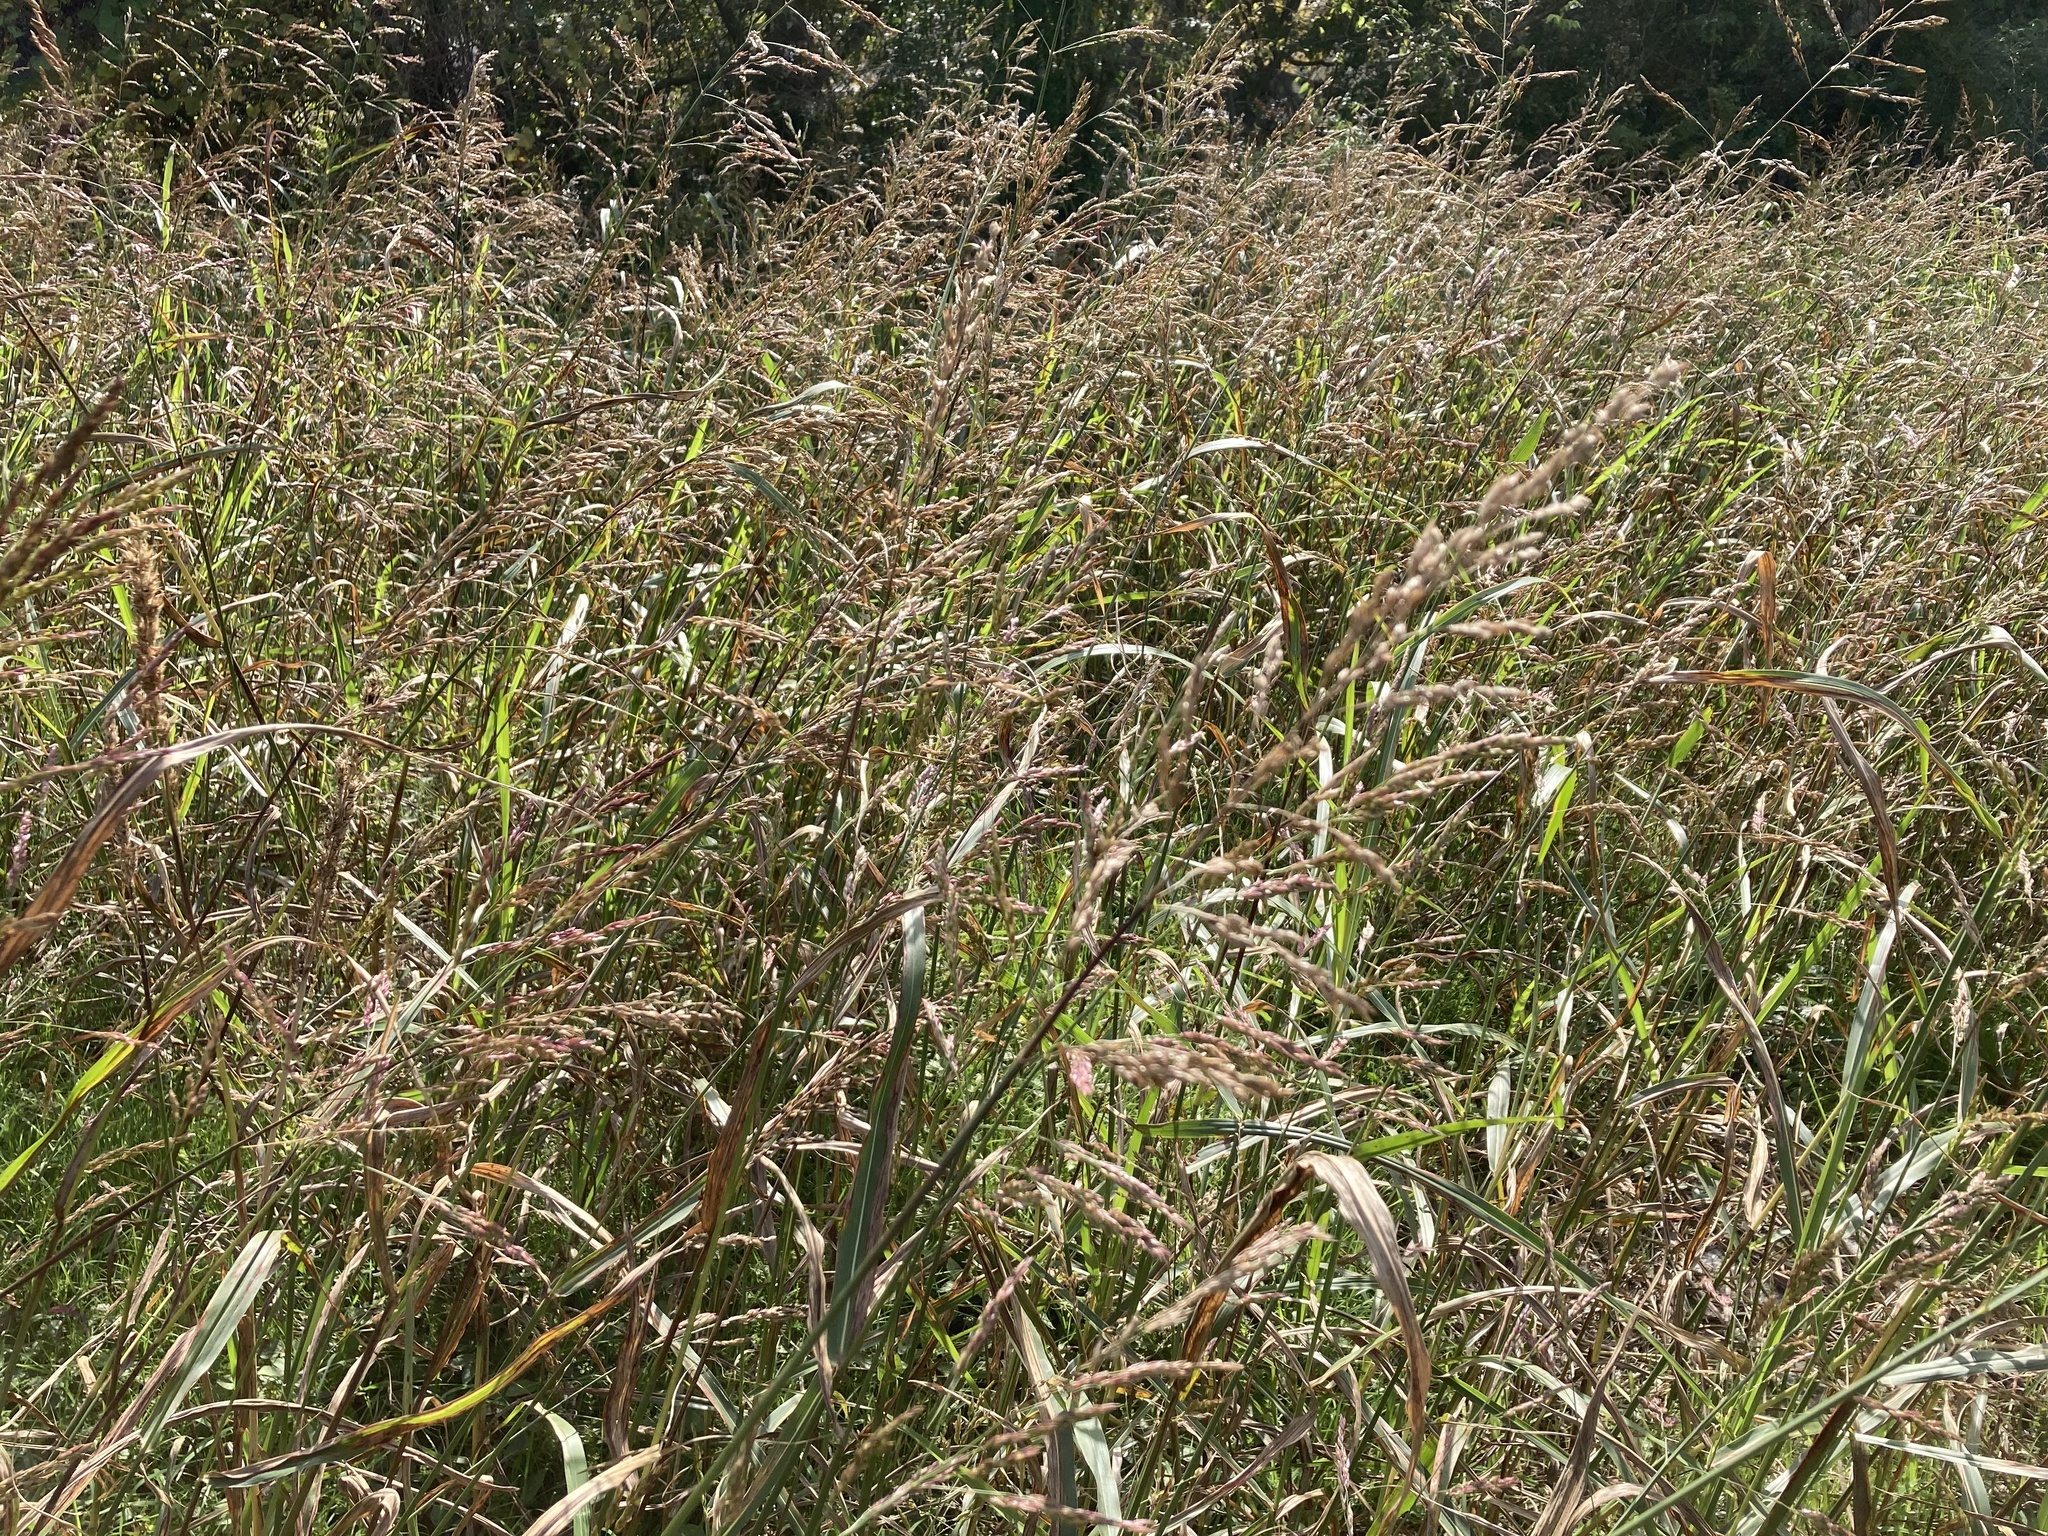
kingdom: Plantae
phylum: Tracheophyta
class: Liliopsida
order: Poales
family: Poaceae
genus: Sorghum
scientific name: Sorghum halepense
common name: Johnson-grass
